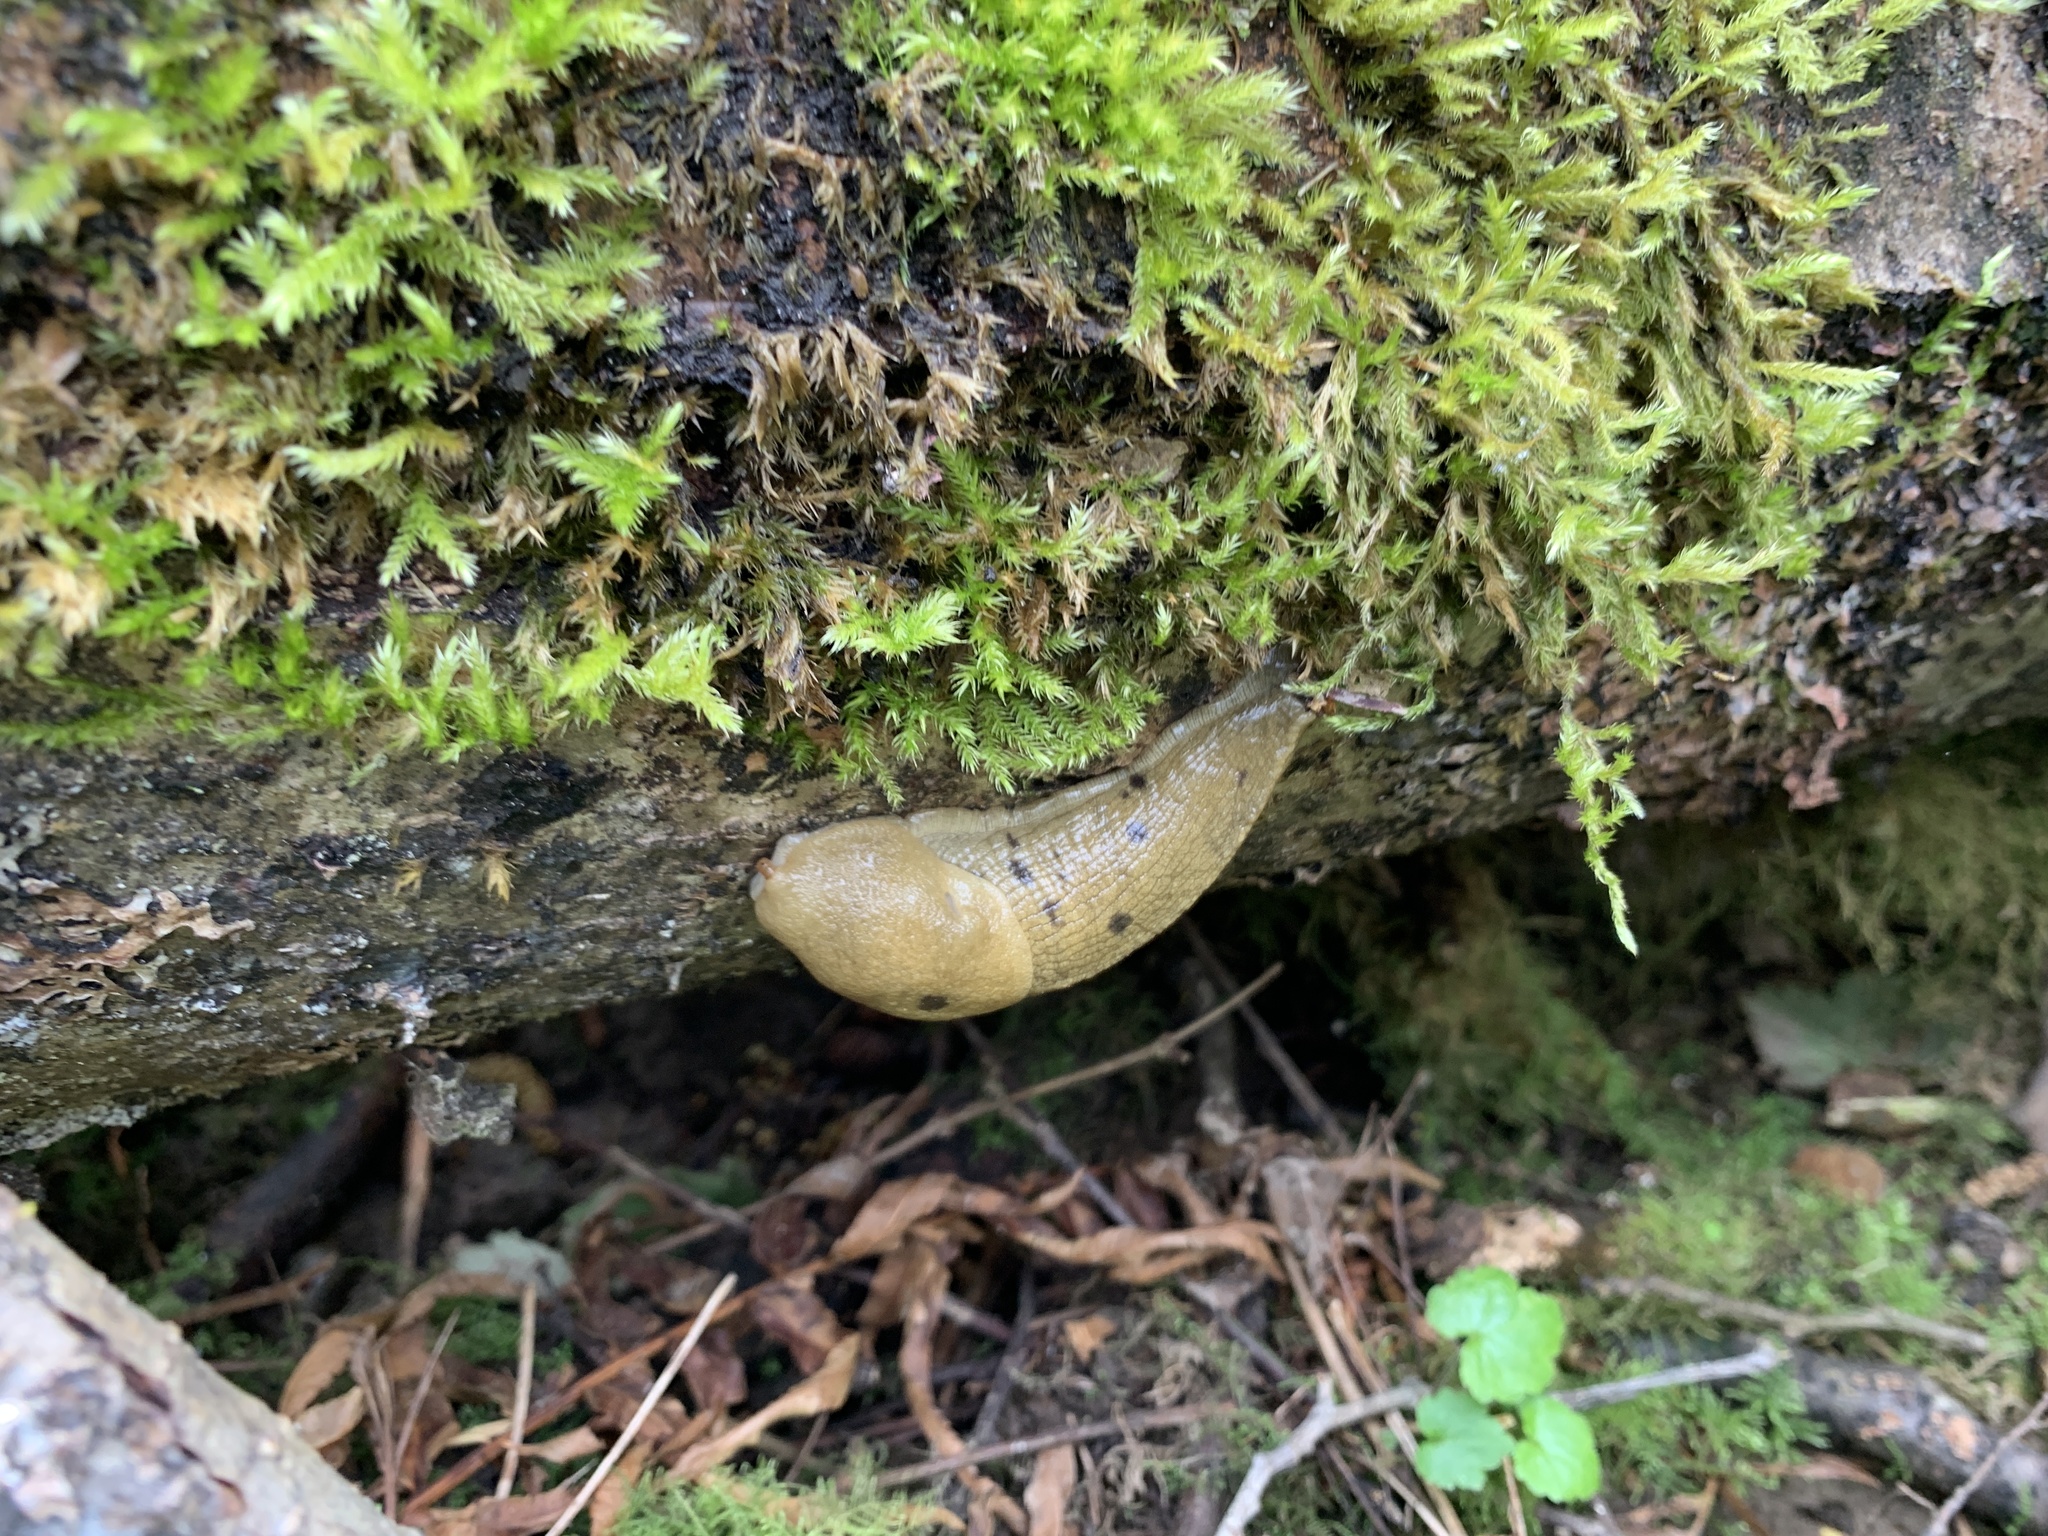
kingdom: Animalia
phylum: Mollusca
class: Gastropoda
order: Stylommatophora
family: Ariolimacidae
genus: Ariolimax
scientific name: Ariolimax columbianus
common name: Pacific banana slug
